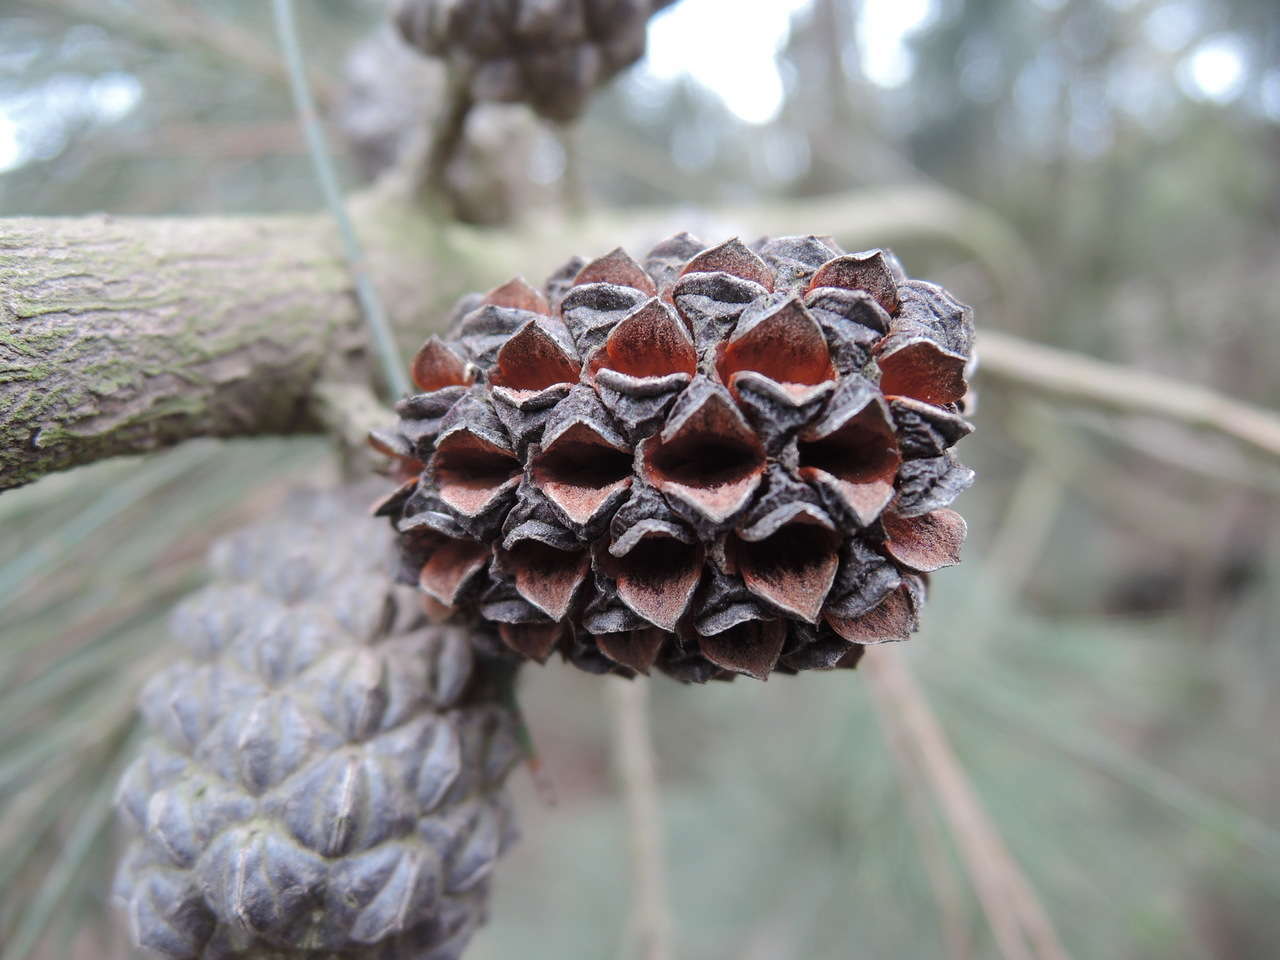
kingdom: Plantae
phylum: Tracheophyta
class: Magnoliopsida
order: Fagales
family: Casuarinaceae
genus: Allocasuarina
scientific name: Allocasuarina littoralis
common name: Black she-oak
